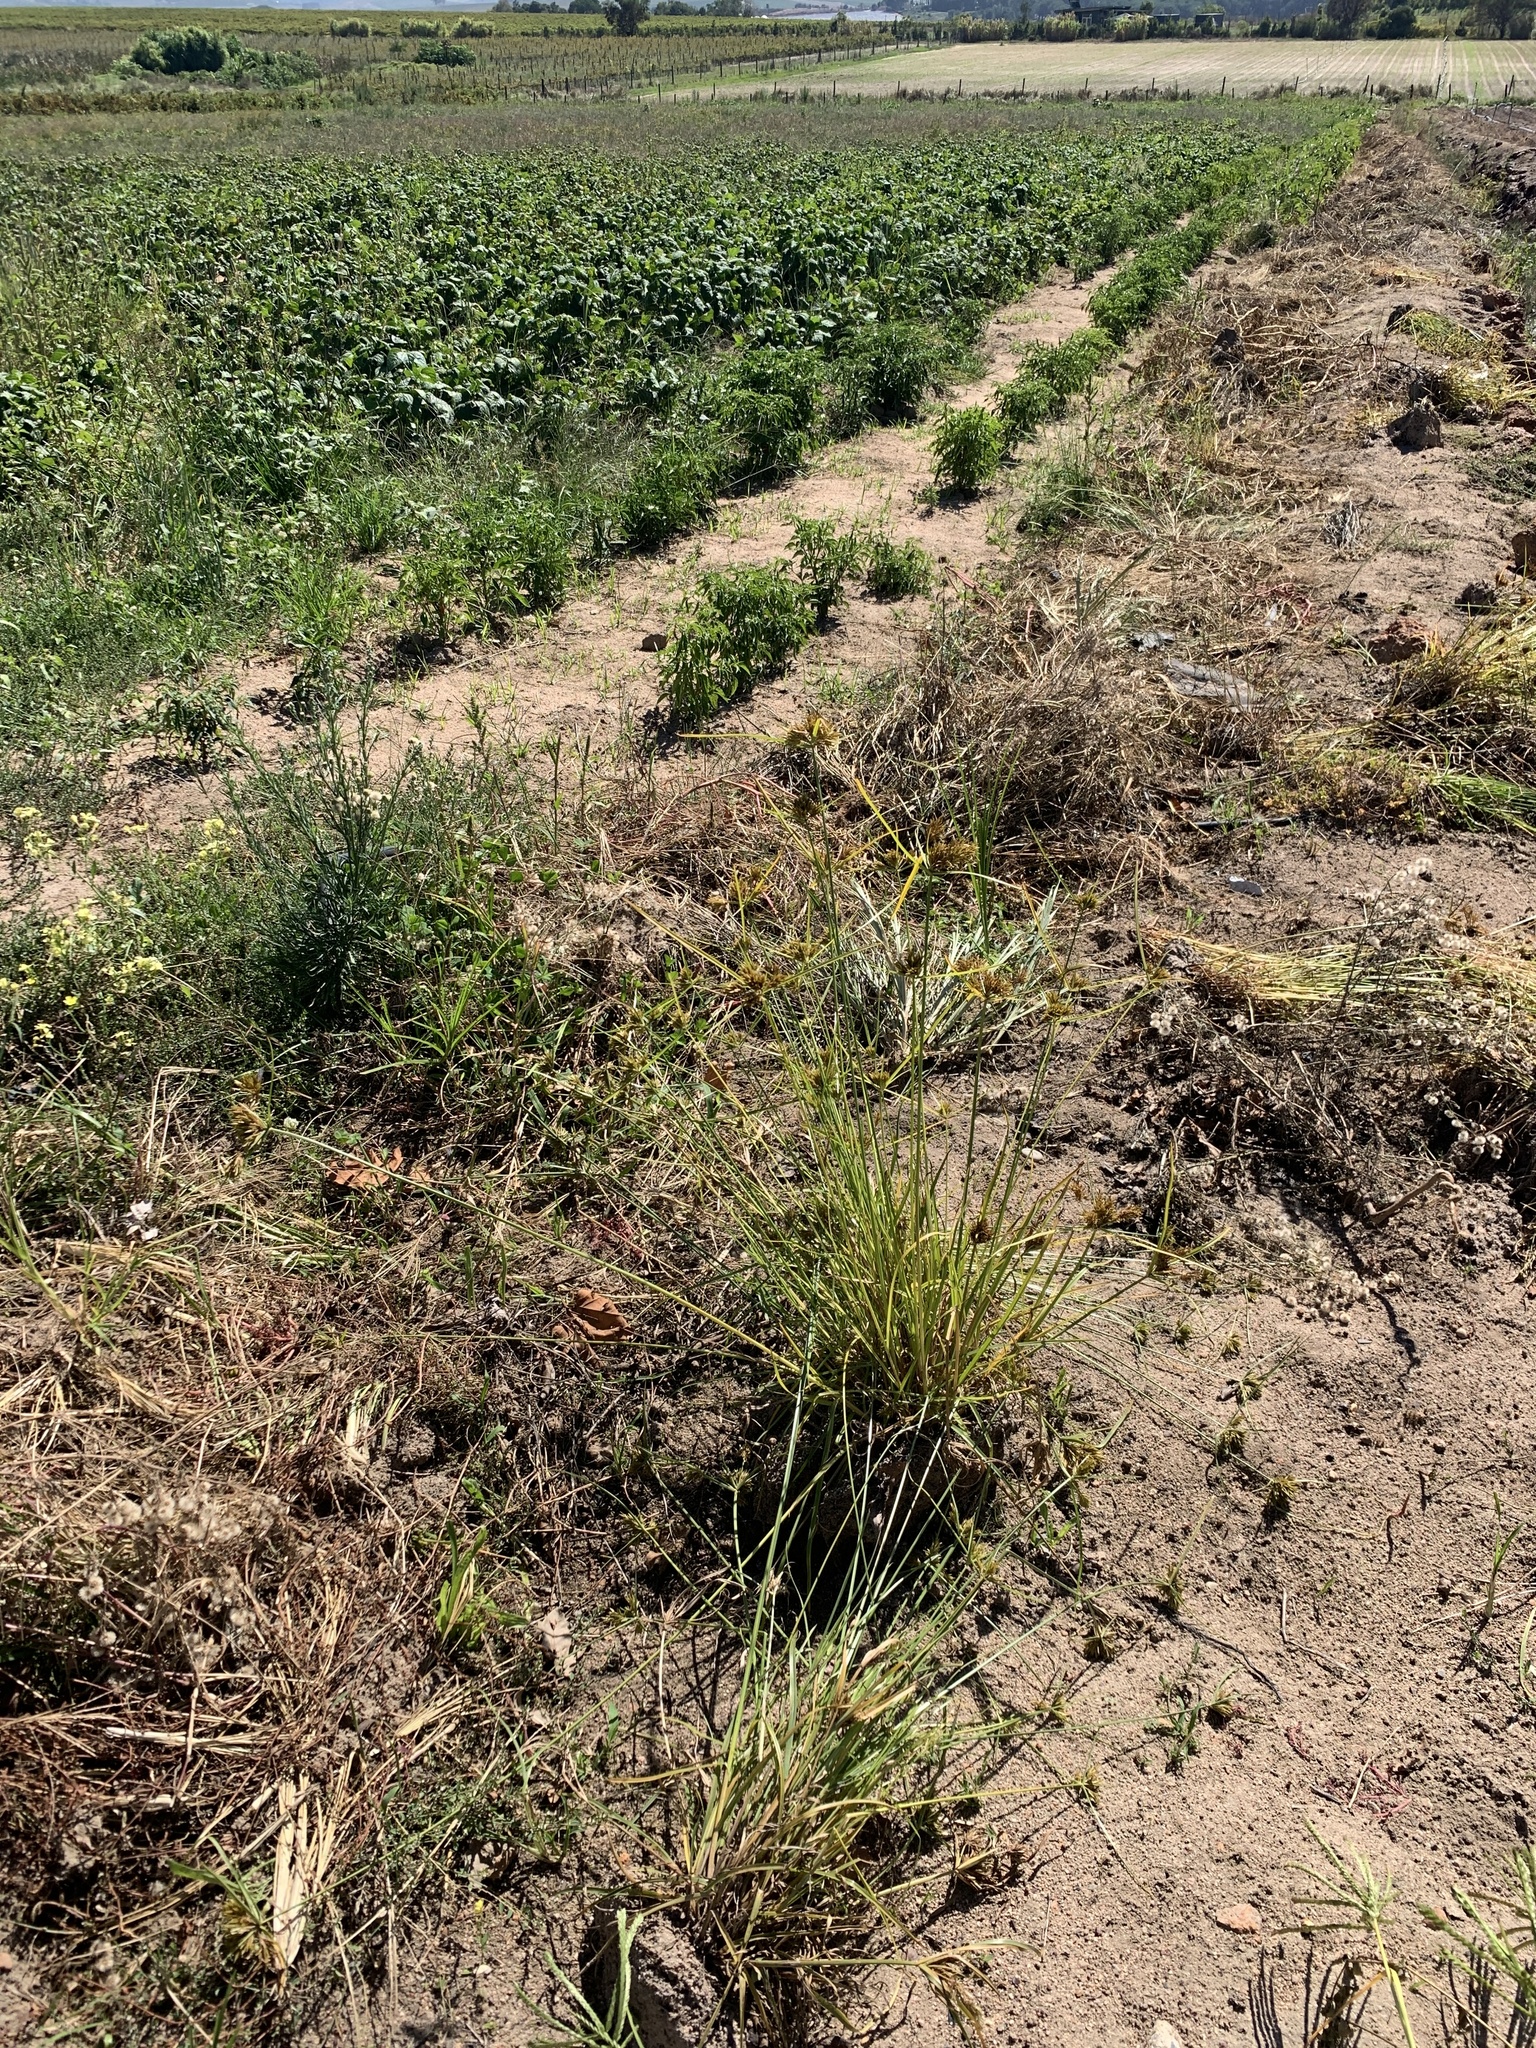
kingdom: Plantae
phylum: Tracheophyta
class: Liliopsida
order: Poales
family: Cyperaceae
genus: Cyperus
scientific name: Cyperus polystachyos
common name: Bunchy flat sedge
